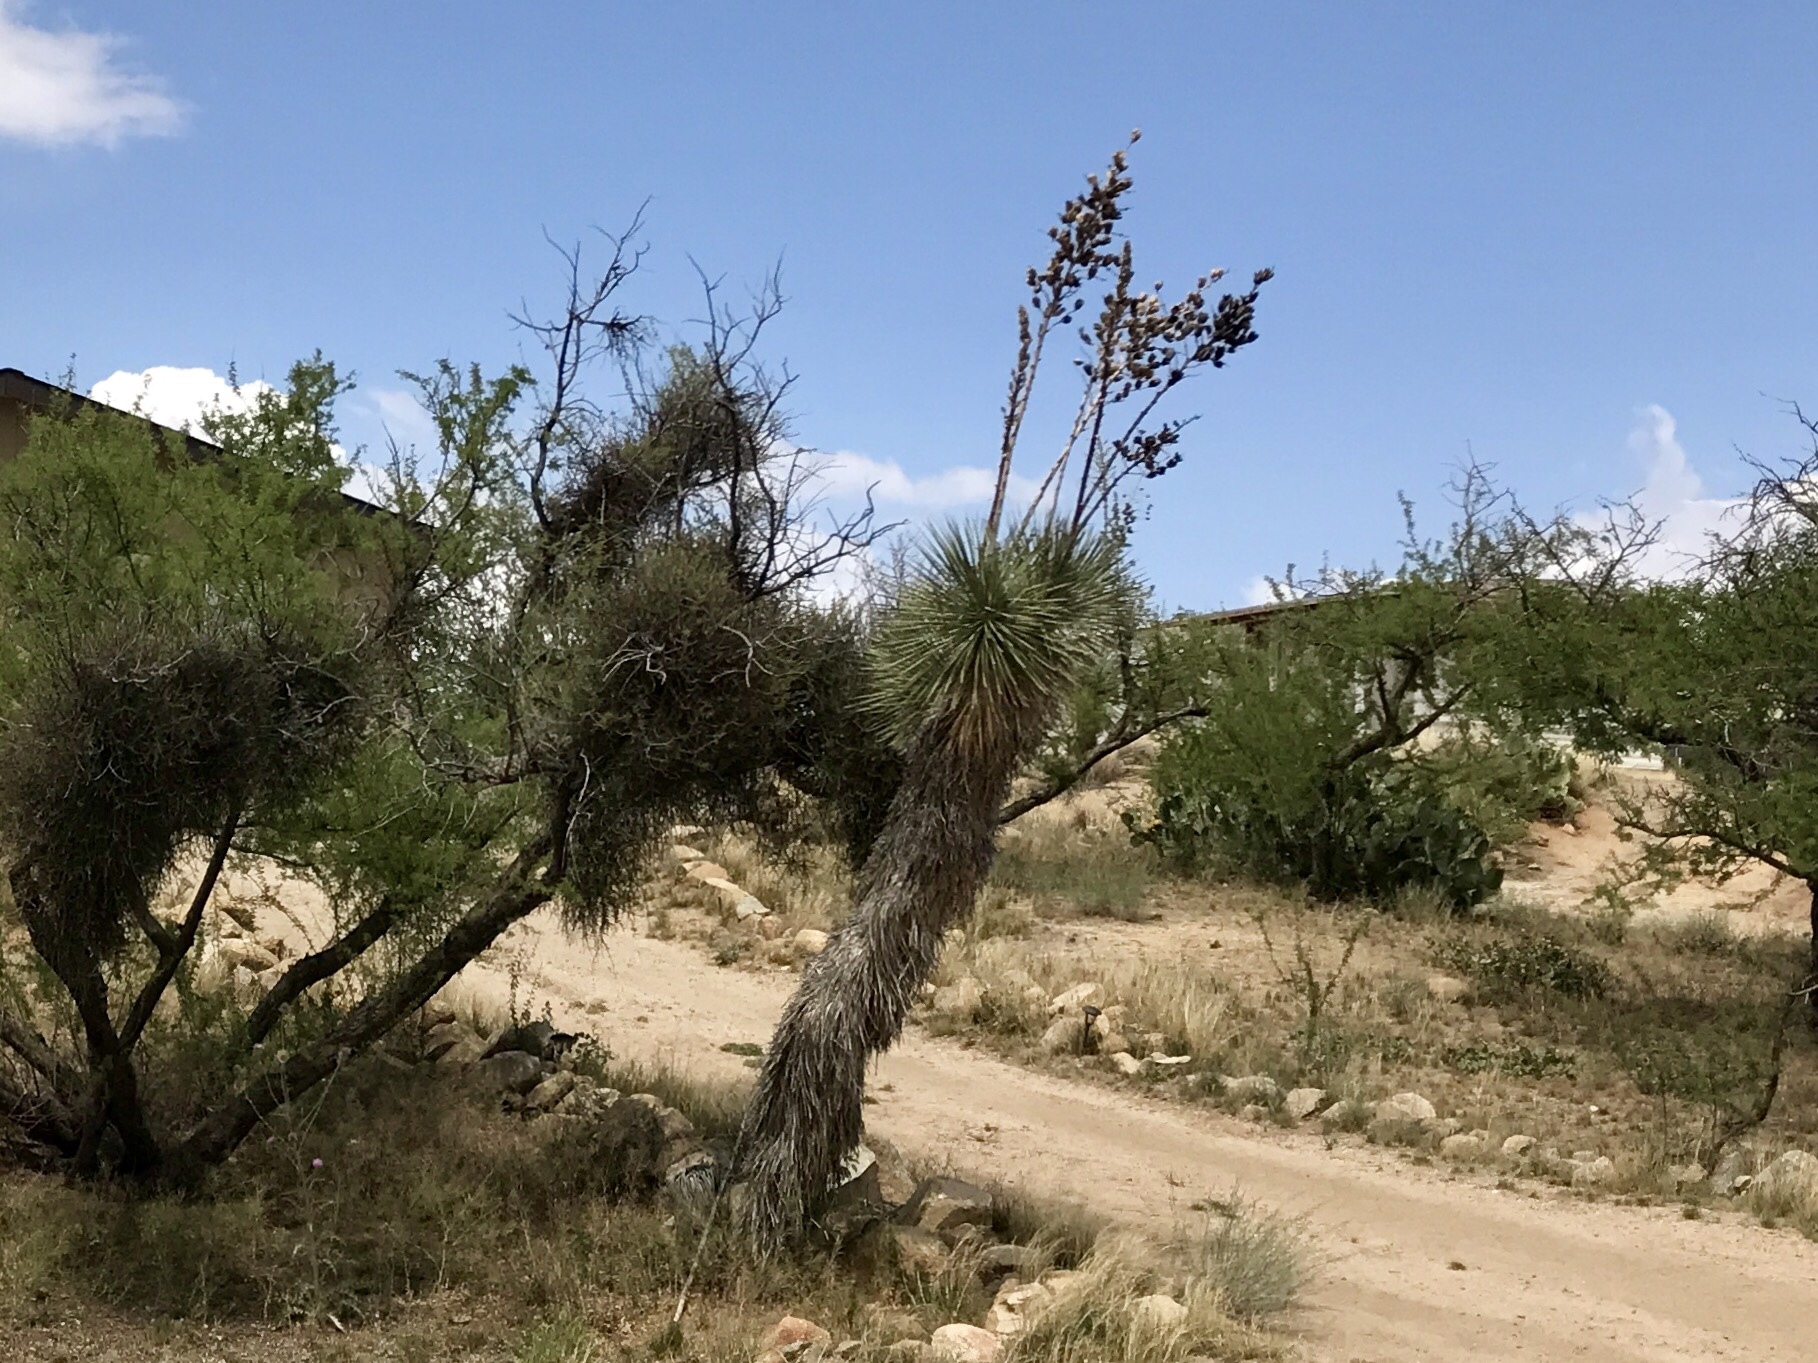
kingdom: Plantae
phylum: Tracheophyta
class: Liliopsida
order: Asparagales
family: Asparagaceae
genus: Yucca
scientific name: Yucca elata
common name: Palmella
